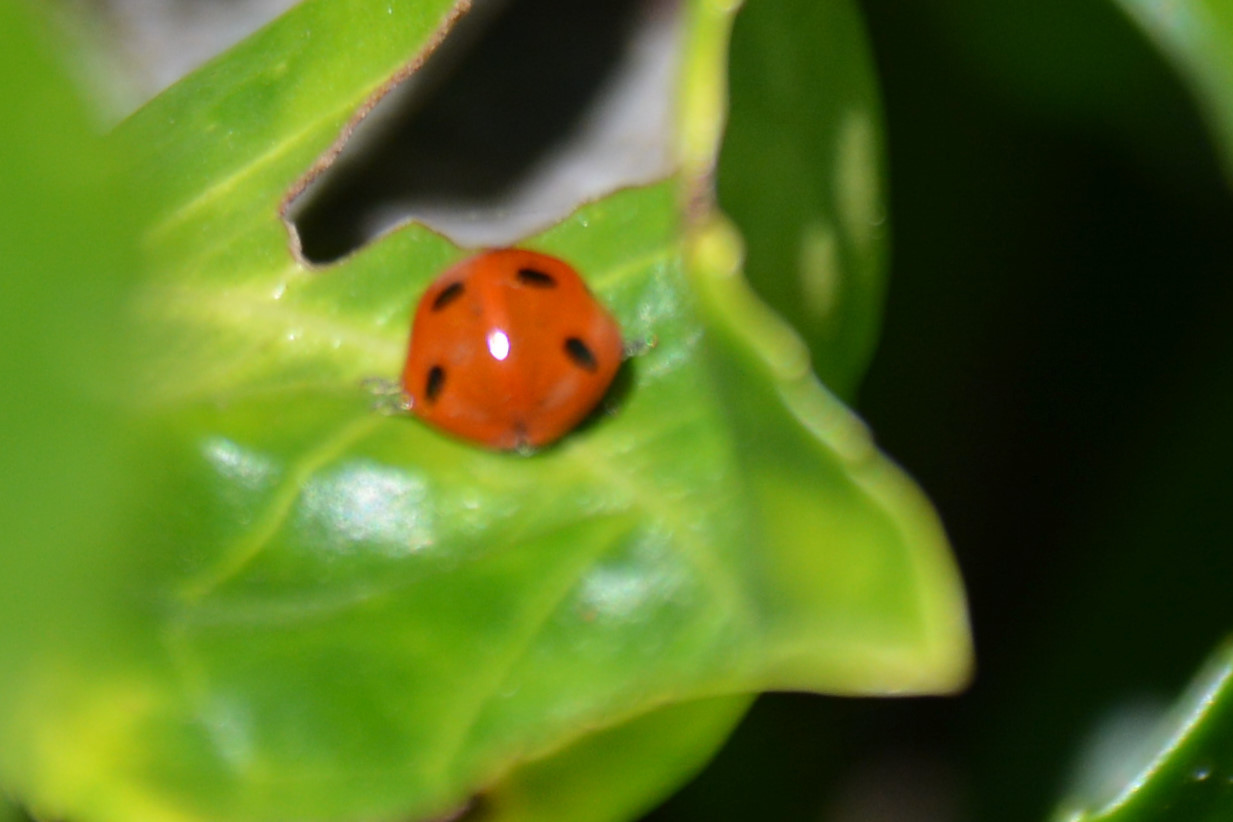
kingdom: Animalia
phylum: Arthropoda
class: Insecta
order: Coleoptera
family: Coccinellidae
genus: Coccinella
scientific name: Coccinella septempunctata
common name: Sevenspotted lady beetle
